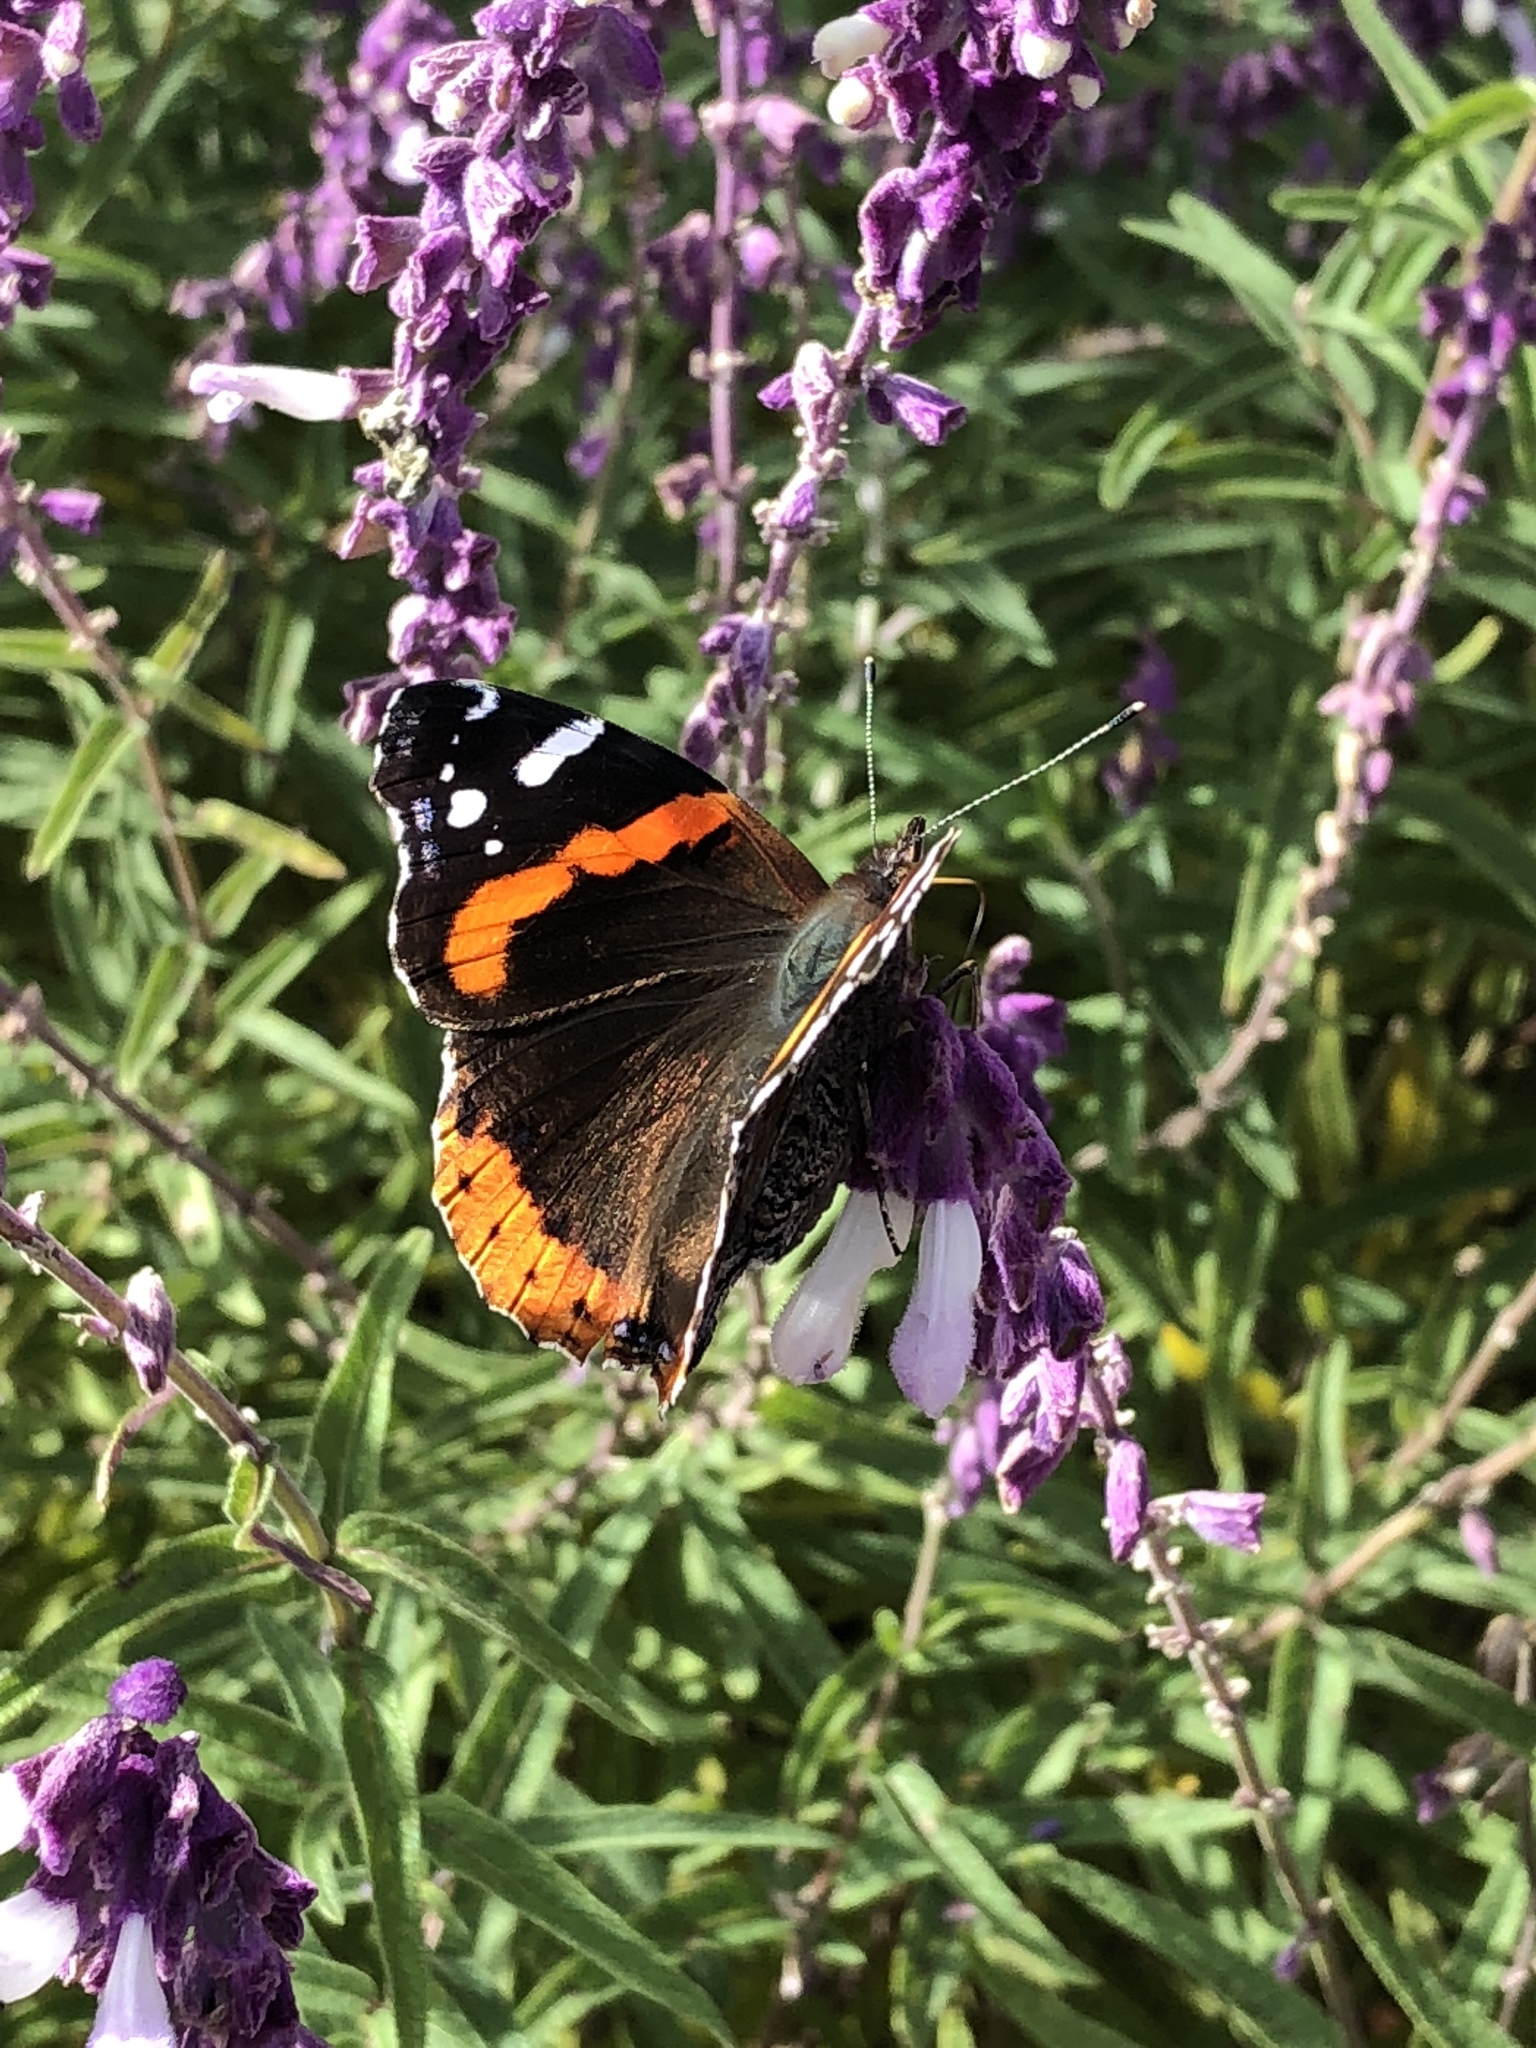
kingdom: Animalia
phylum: Arthropoda
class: Insecta
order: Lepidoptera
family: Nymphalidae
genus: Vanessa
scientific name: Vanessa atalanta
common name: Red admiral
